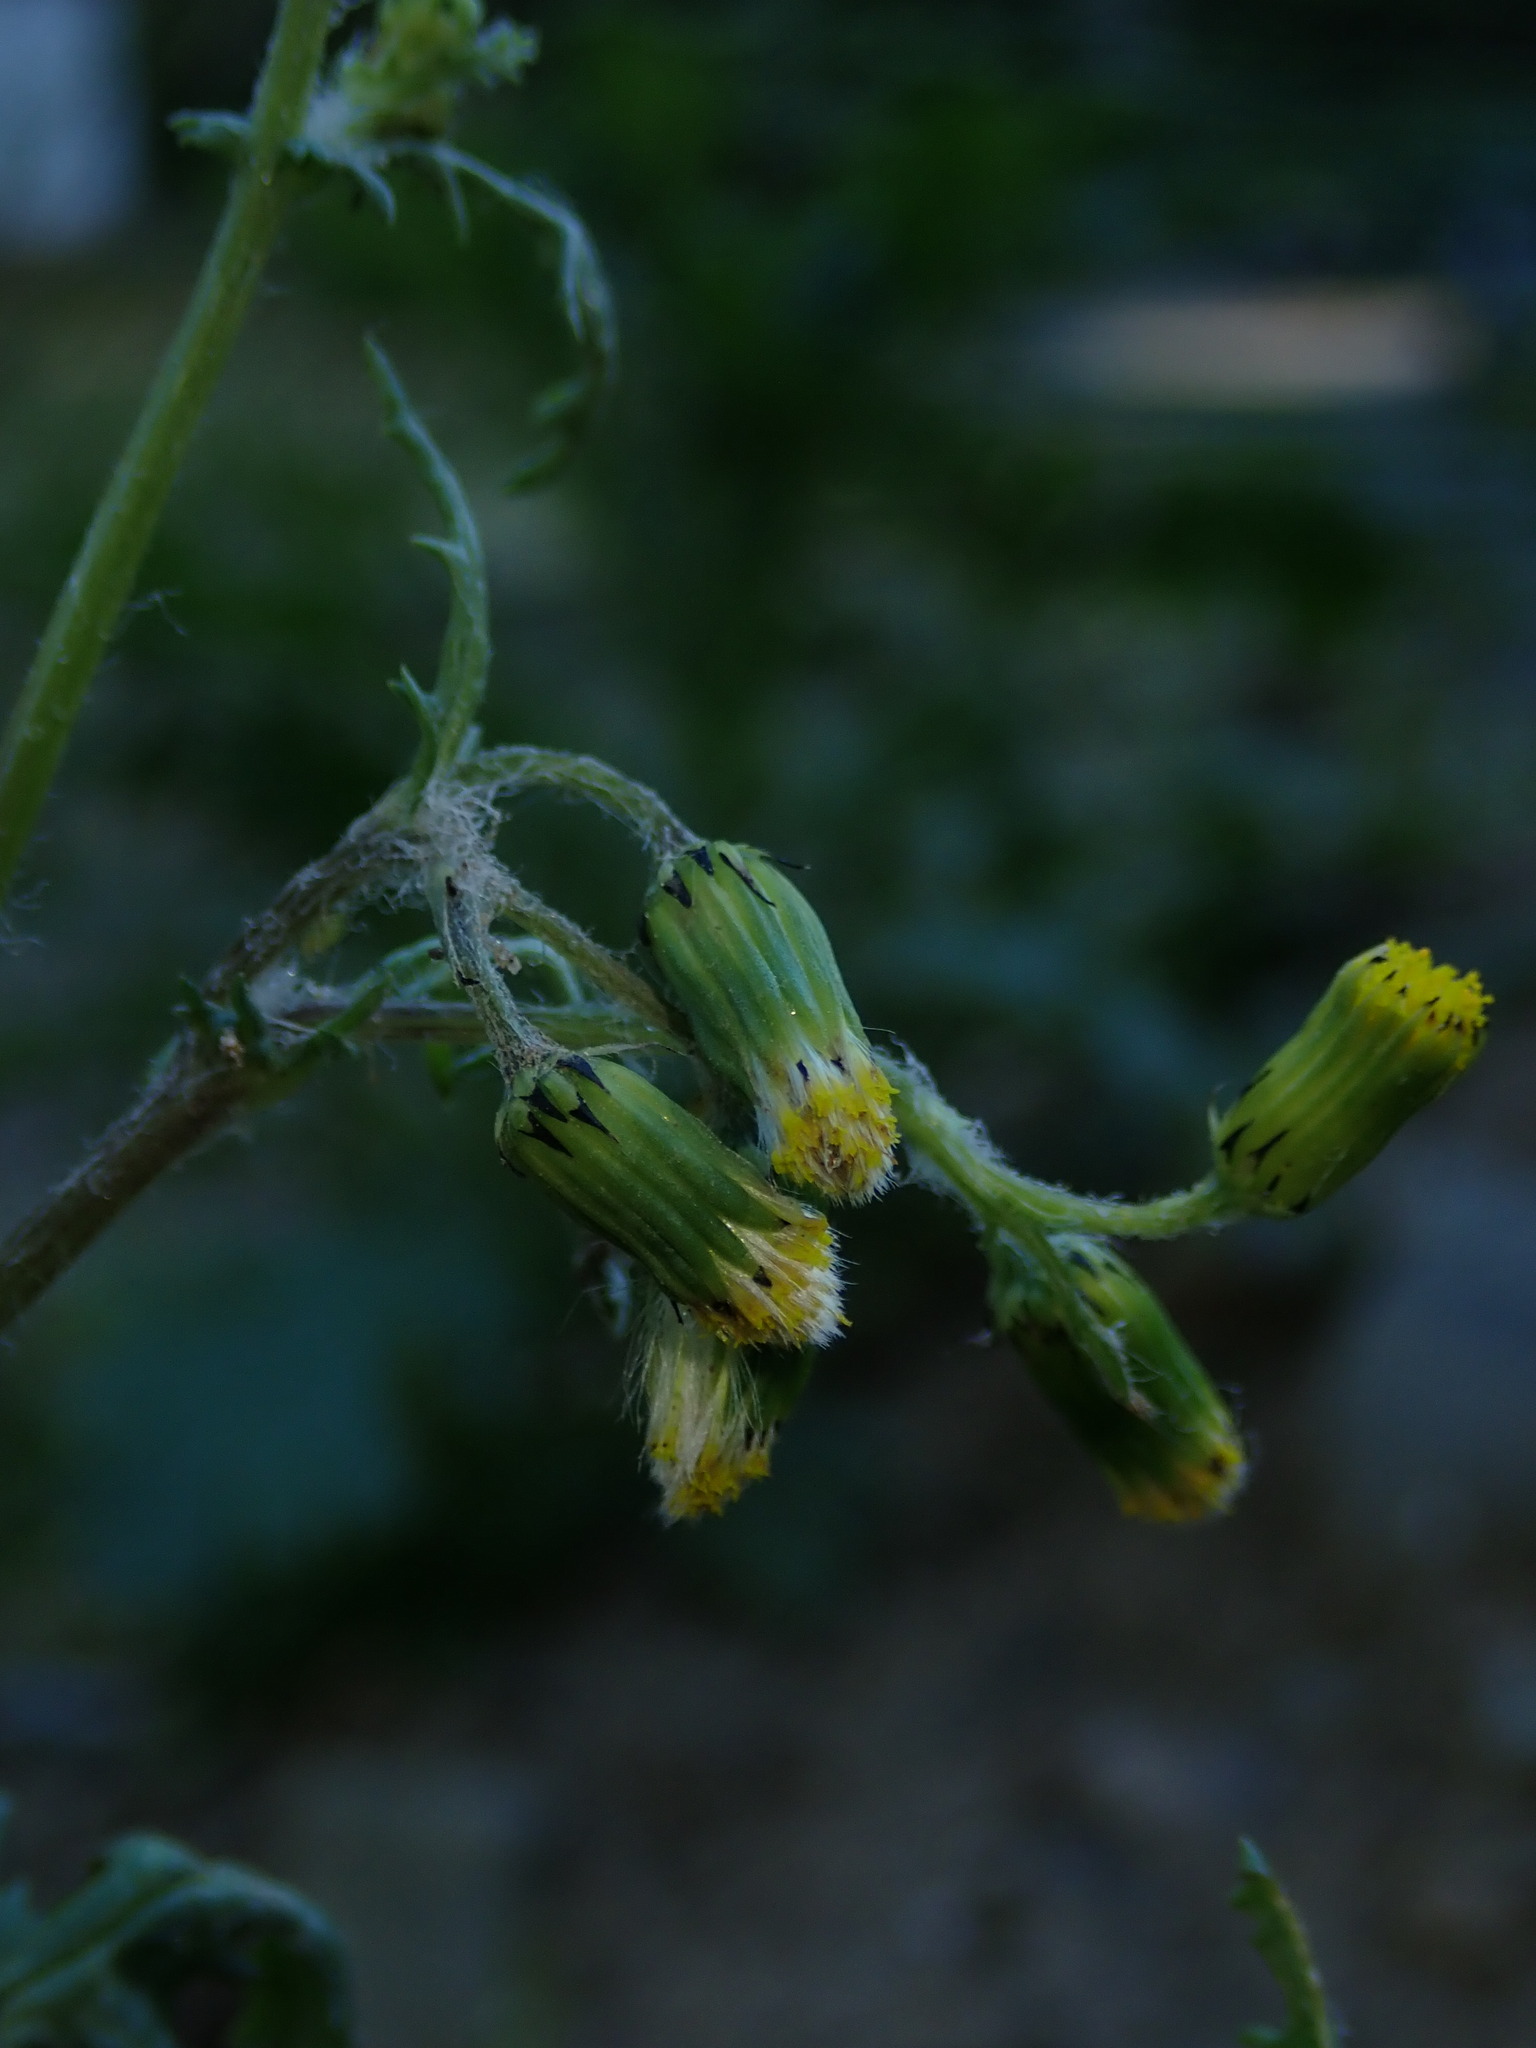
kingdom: Plantae
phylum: Tracheophyta
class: Magnoliopsida
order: Asterales
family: Asteraceae
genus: Senecio
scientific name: Senecio vulgaris
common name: Old-man-in-the-spring
